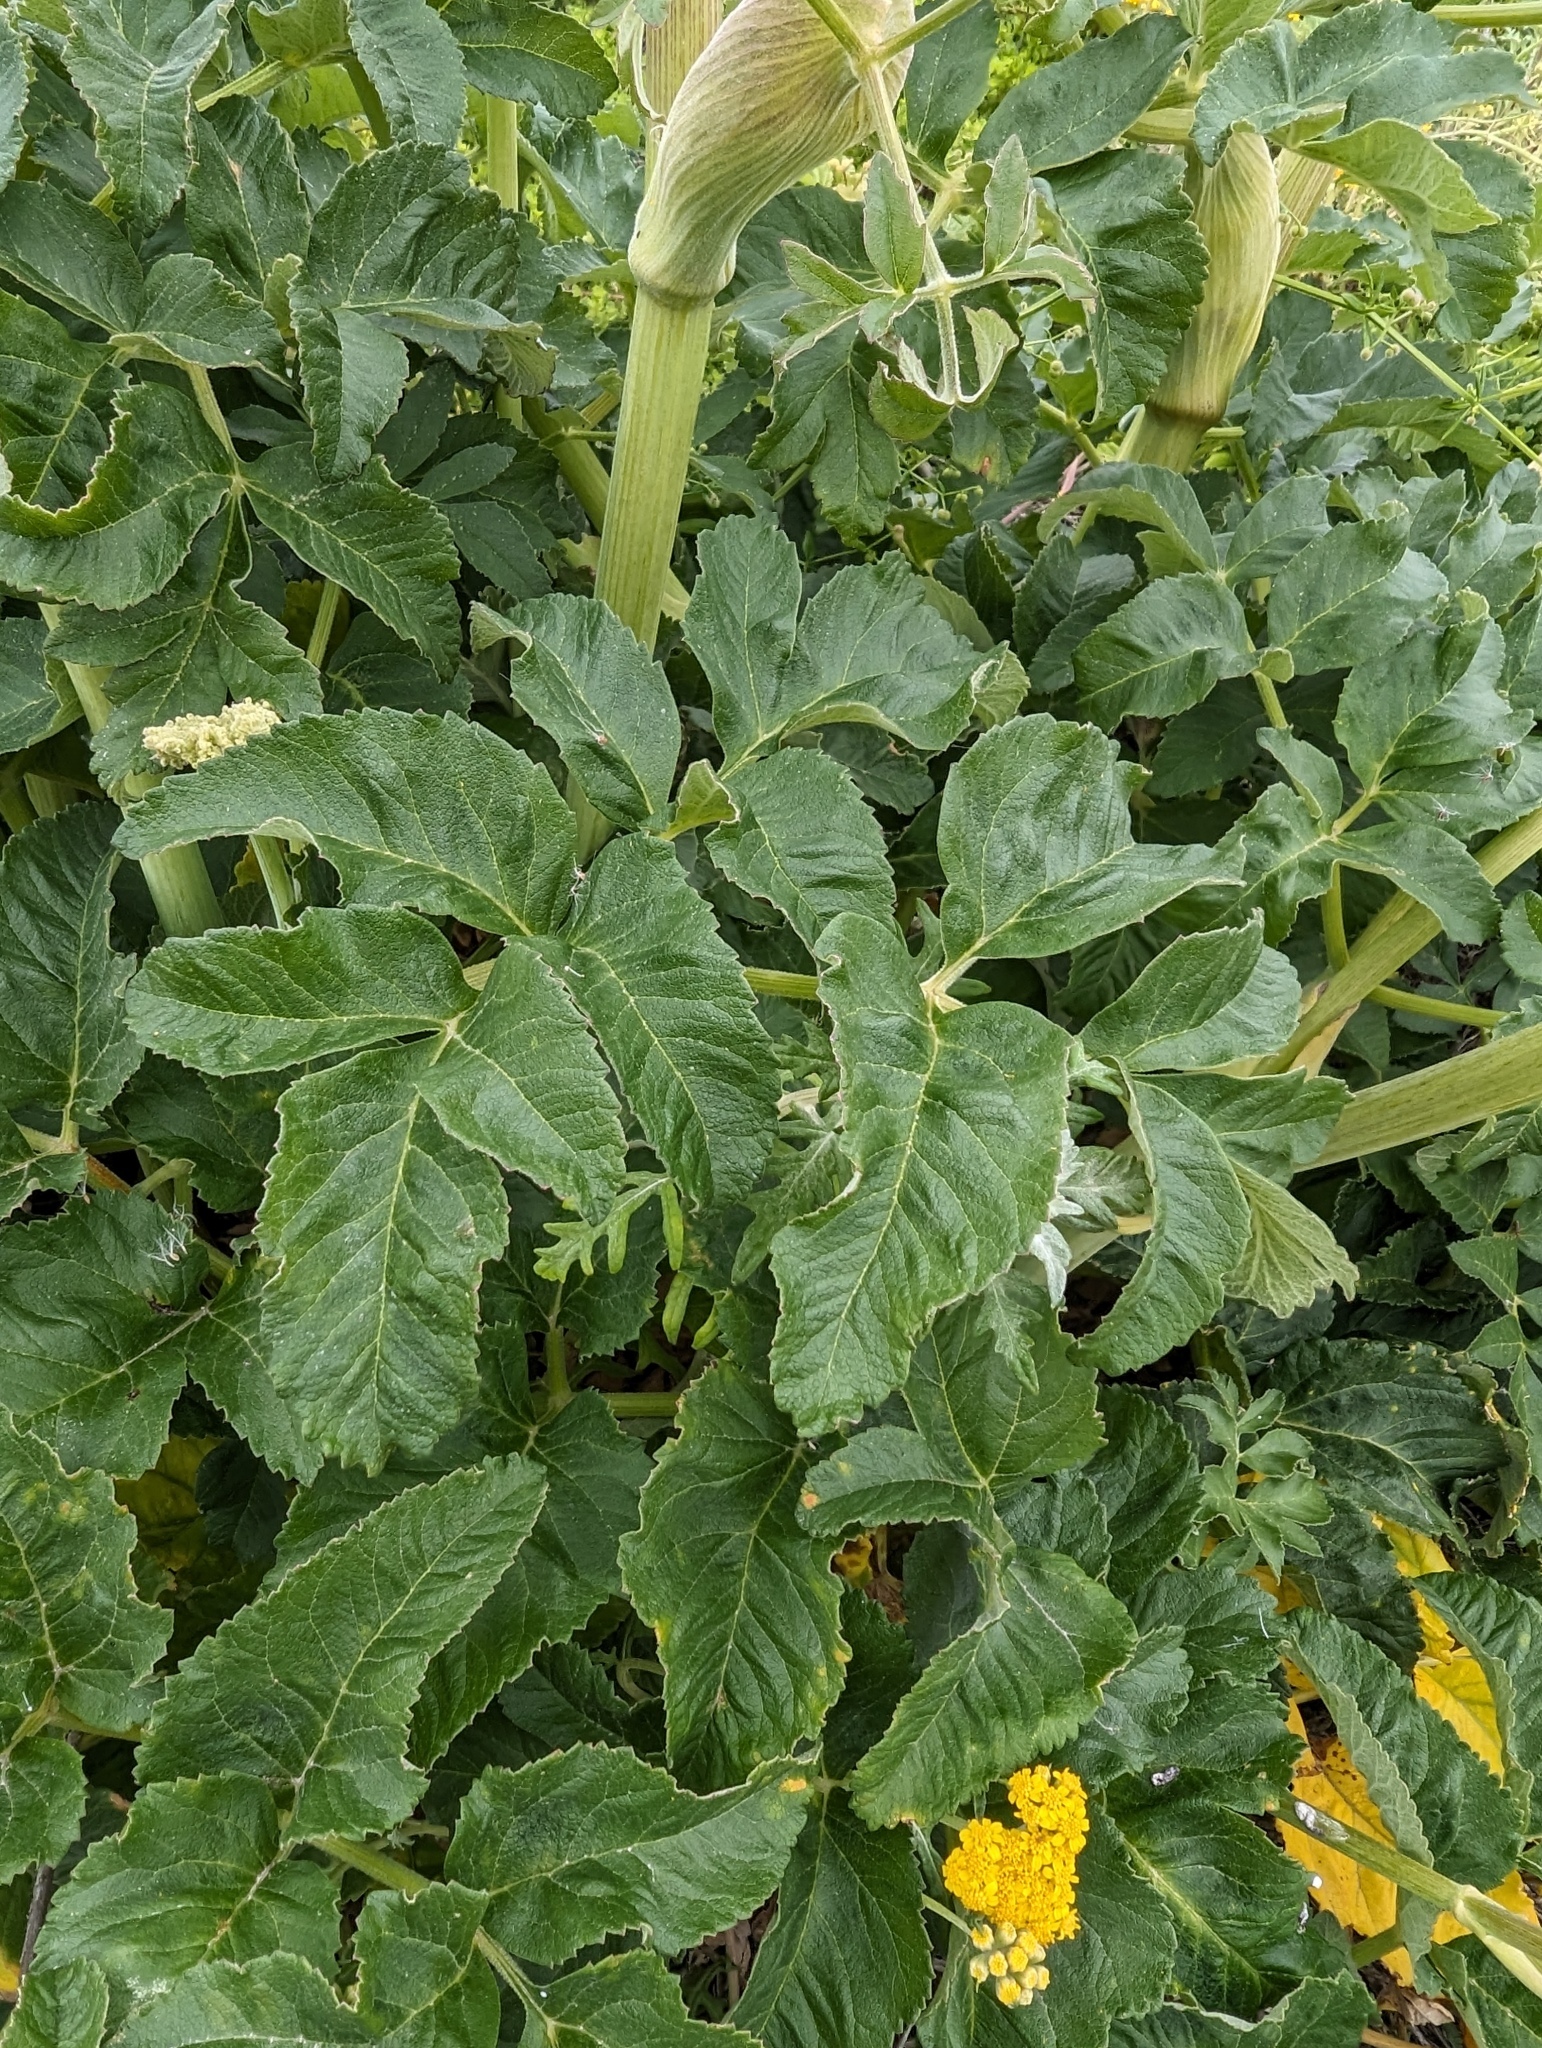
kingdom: Plantae
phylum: Tracheophyta
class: Magnoliopsida
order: Apiales
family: Apiaceae
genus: Angelica
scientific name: Angelica hendersonii
